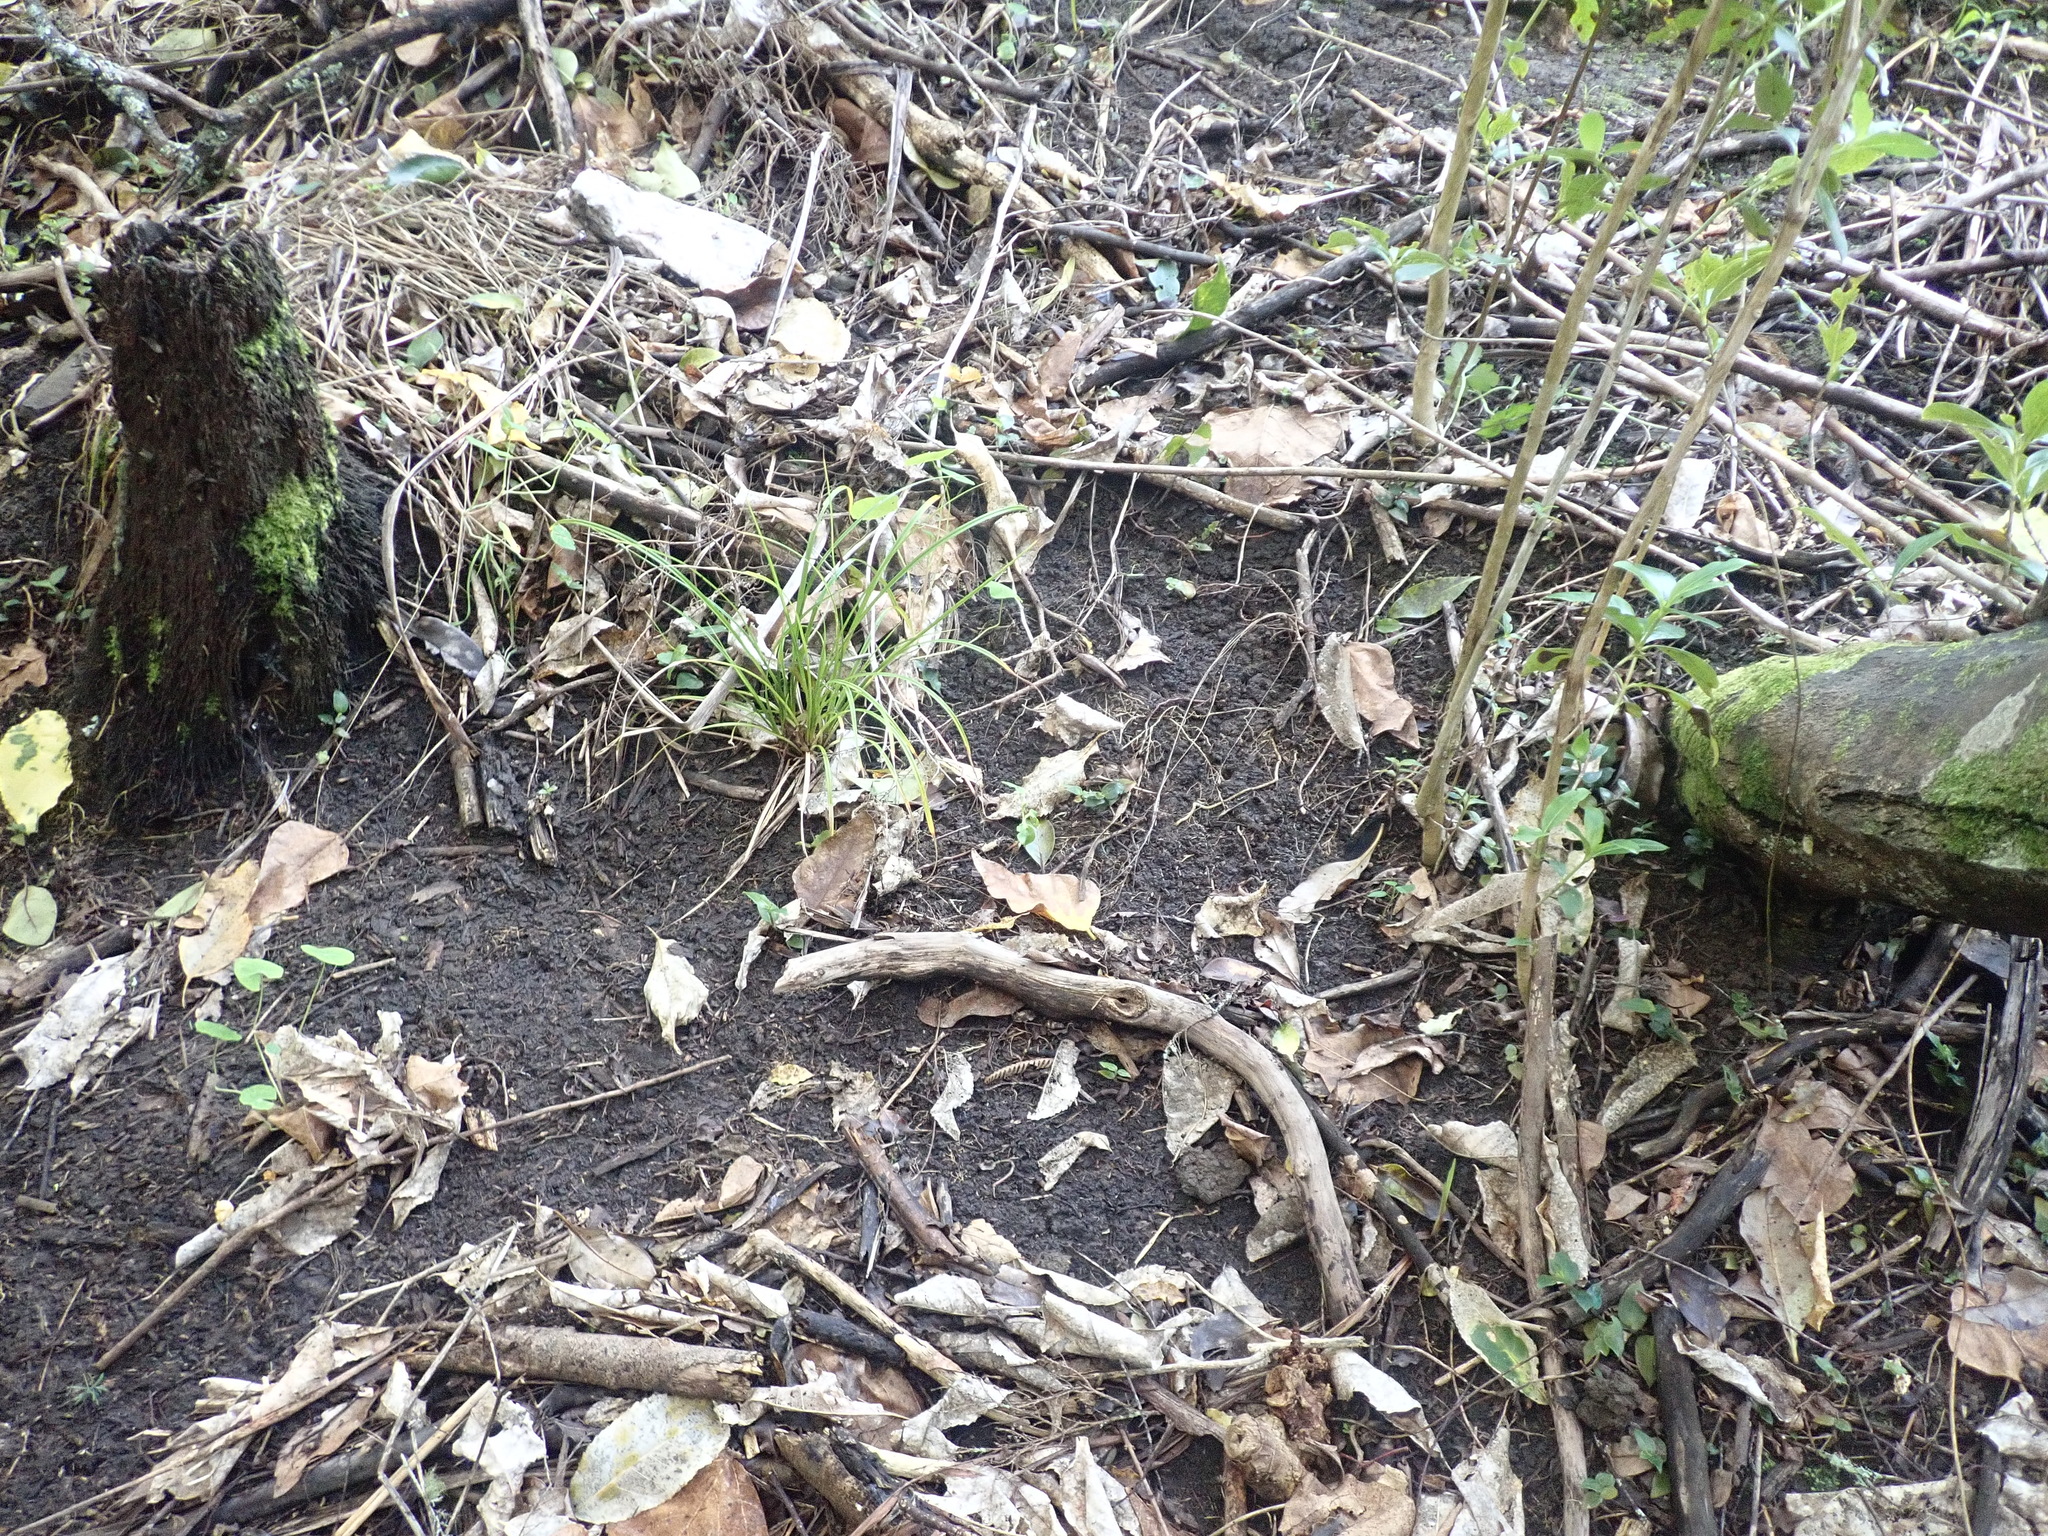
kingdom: Plantae
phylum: Tracheophyta
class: Magnoliopsida
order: Gentianales
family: Rubiaceae
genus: Coprosma
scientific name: Coprosma robusta
